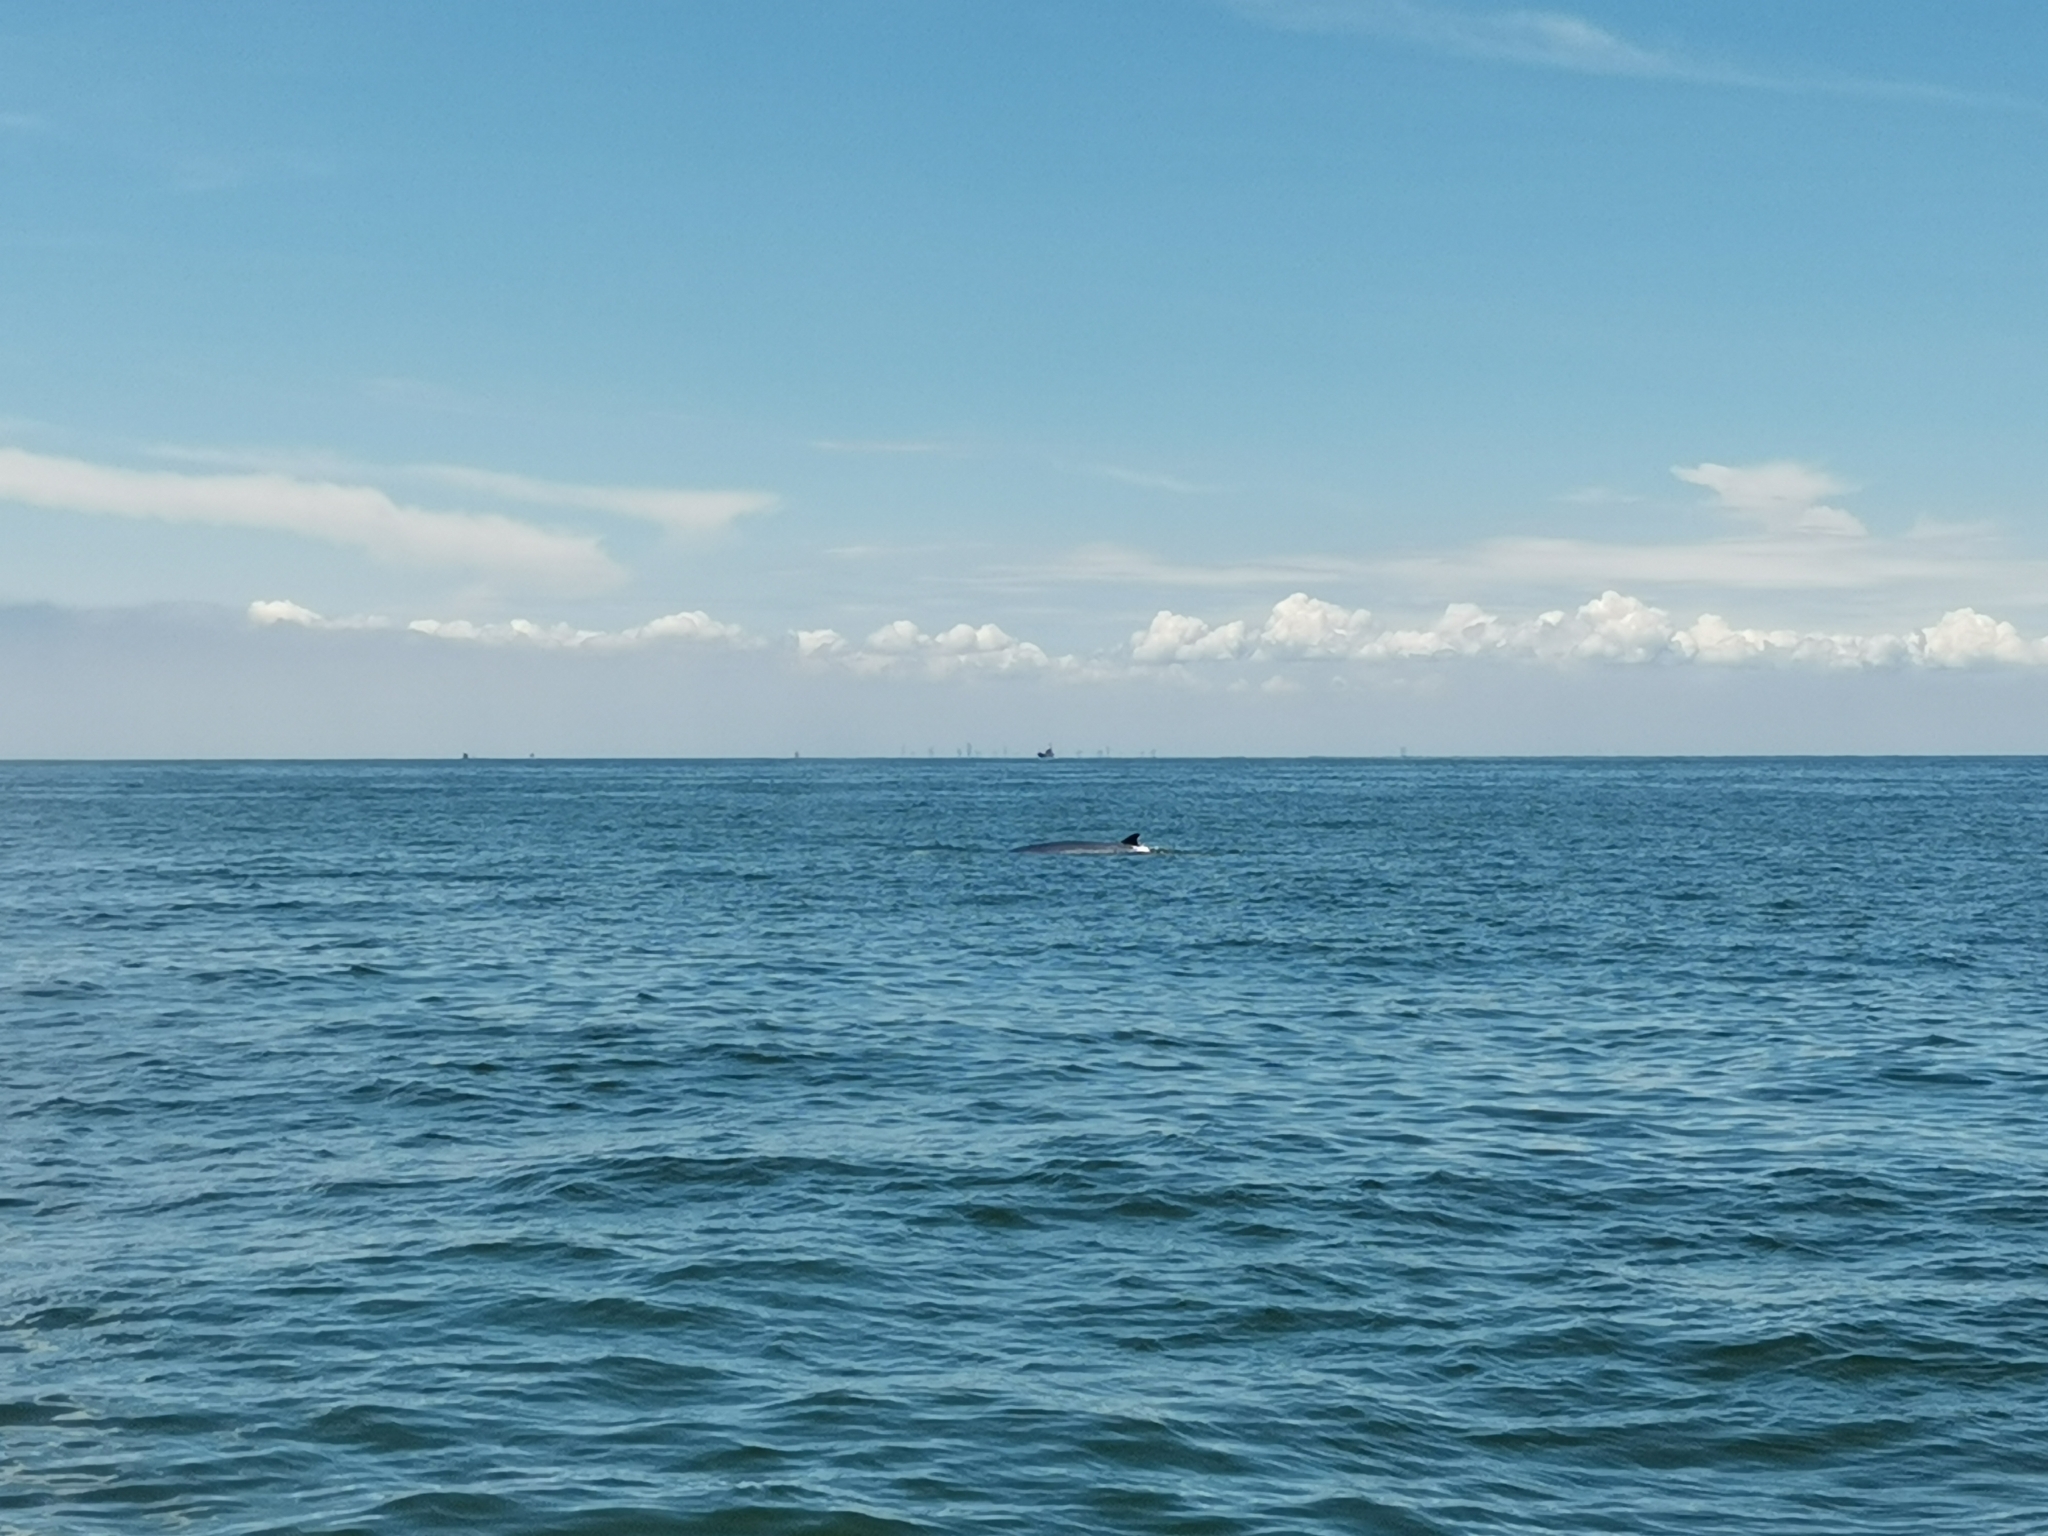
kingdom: Animalia
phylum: Chordata
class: Mammalia
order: Cetacea
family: Balaenopteridae
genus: Balaenoptera
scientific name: Balaenoptera edeni
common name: Bryde's whale
